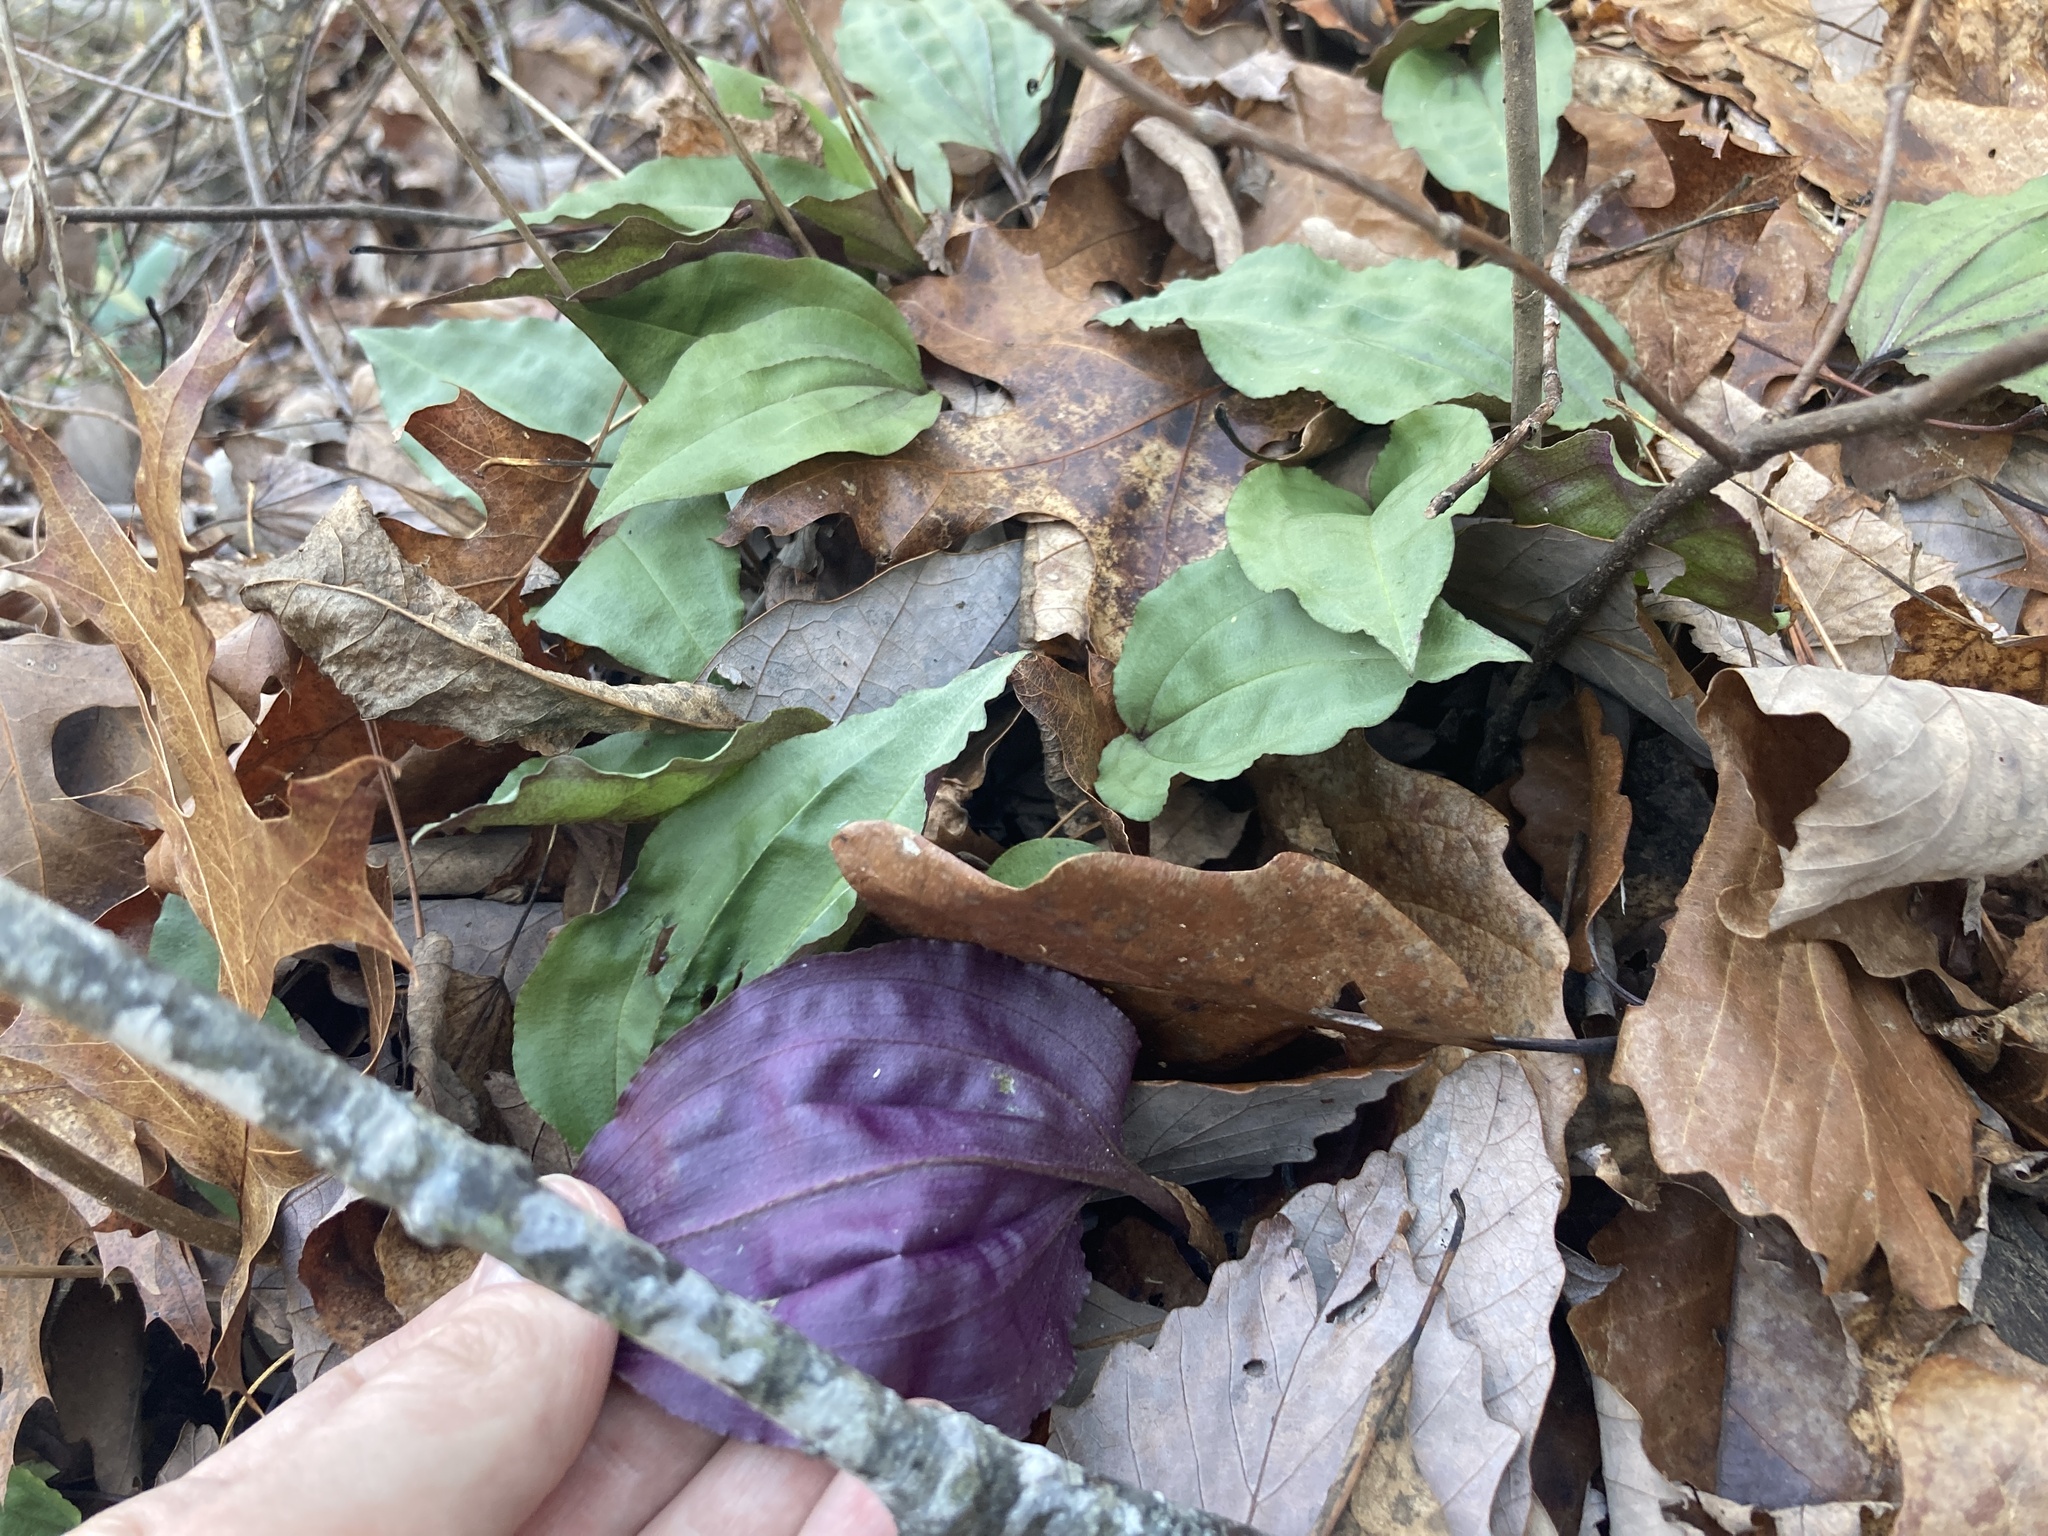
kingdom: Plantae
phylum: Tracheophyta
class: Liliopsida
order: Asparagales
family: Orchidaceae
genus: Tipularia
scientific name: Tipularia discolor
